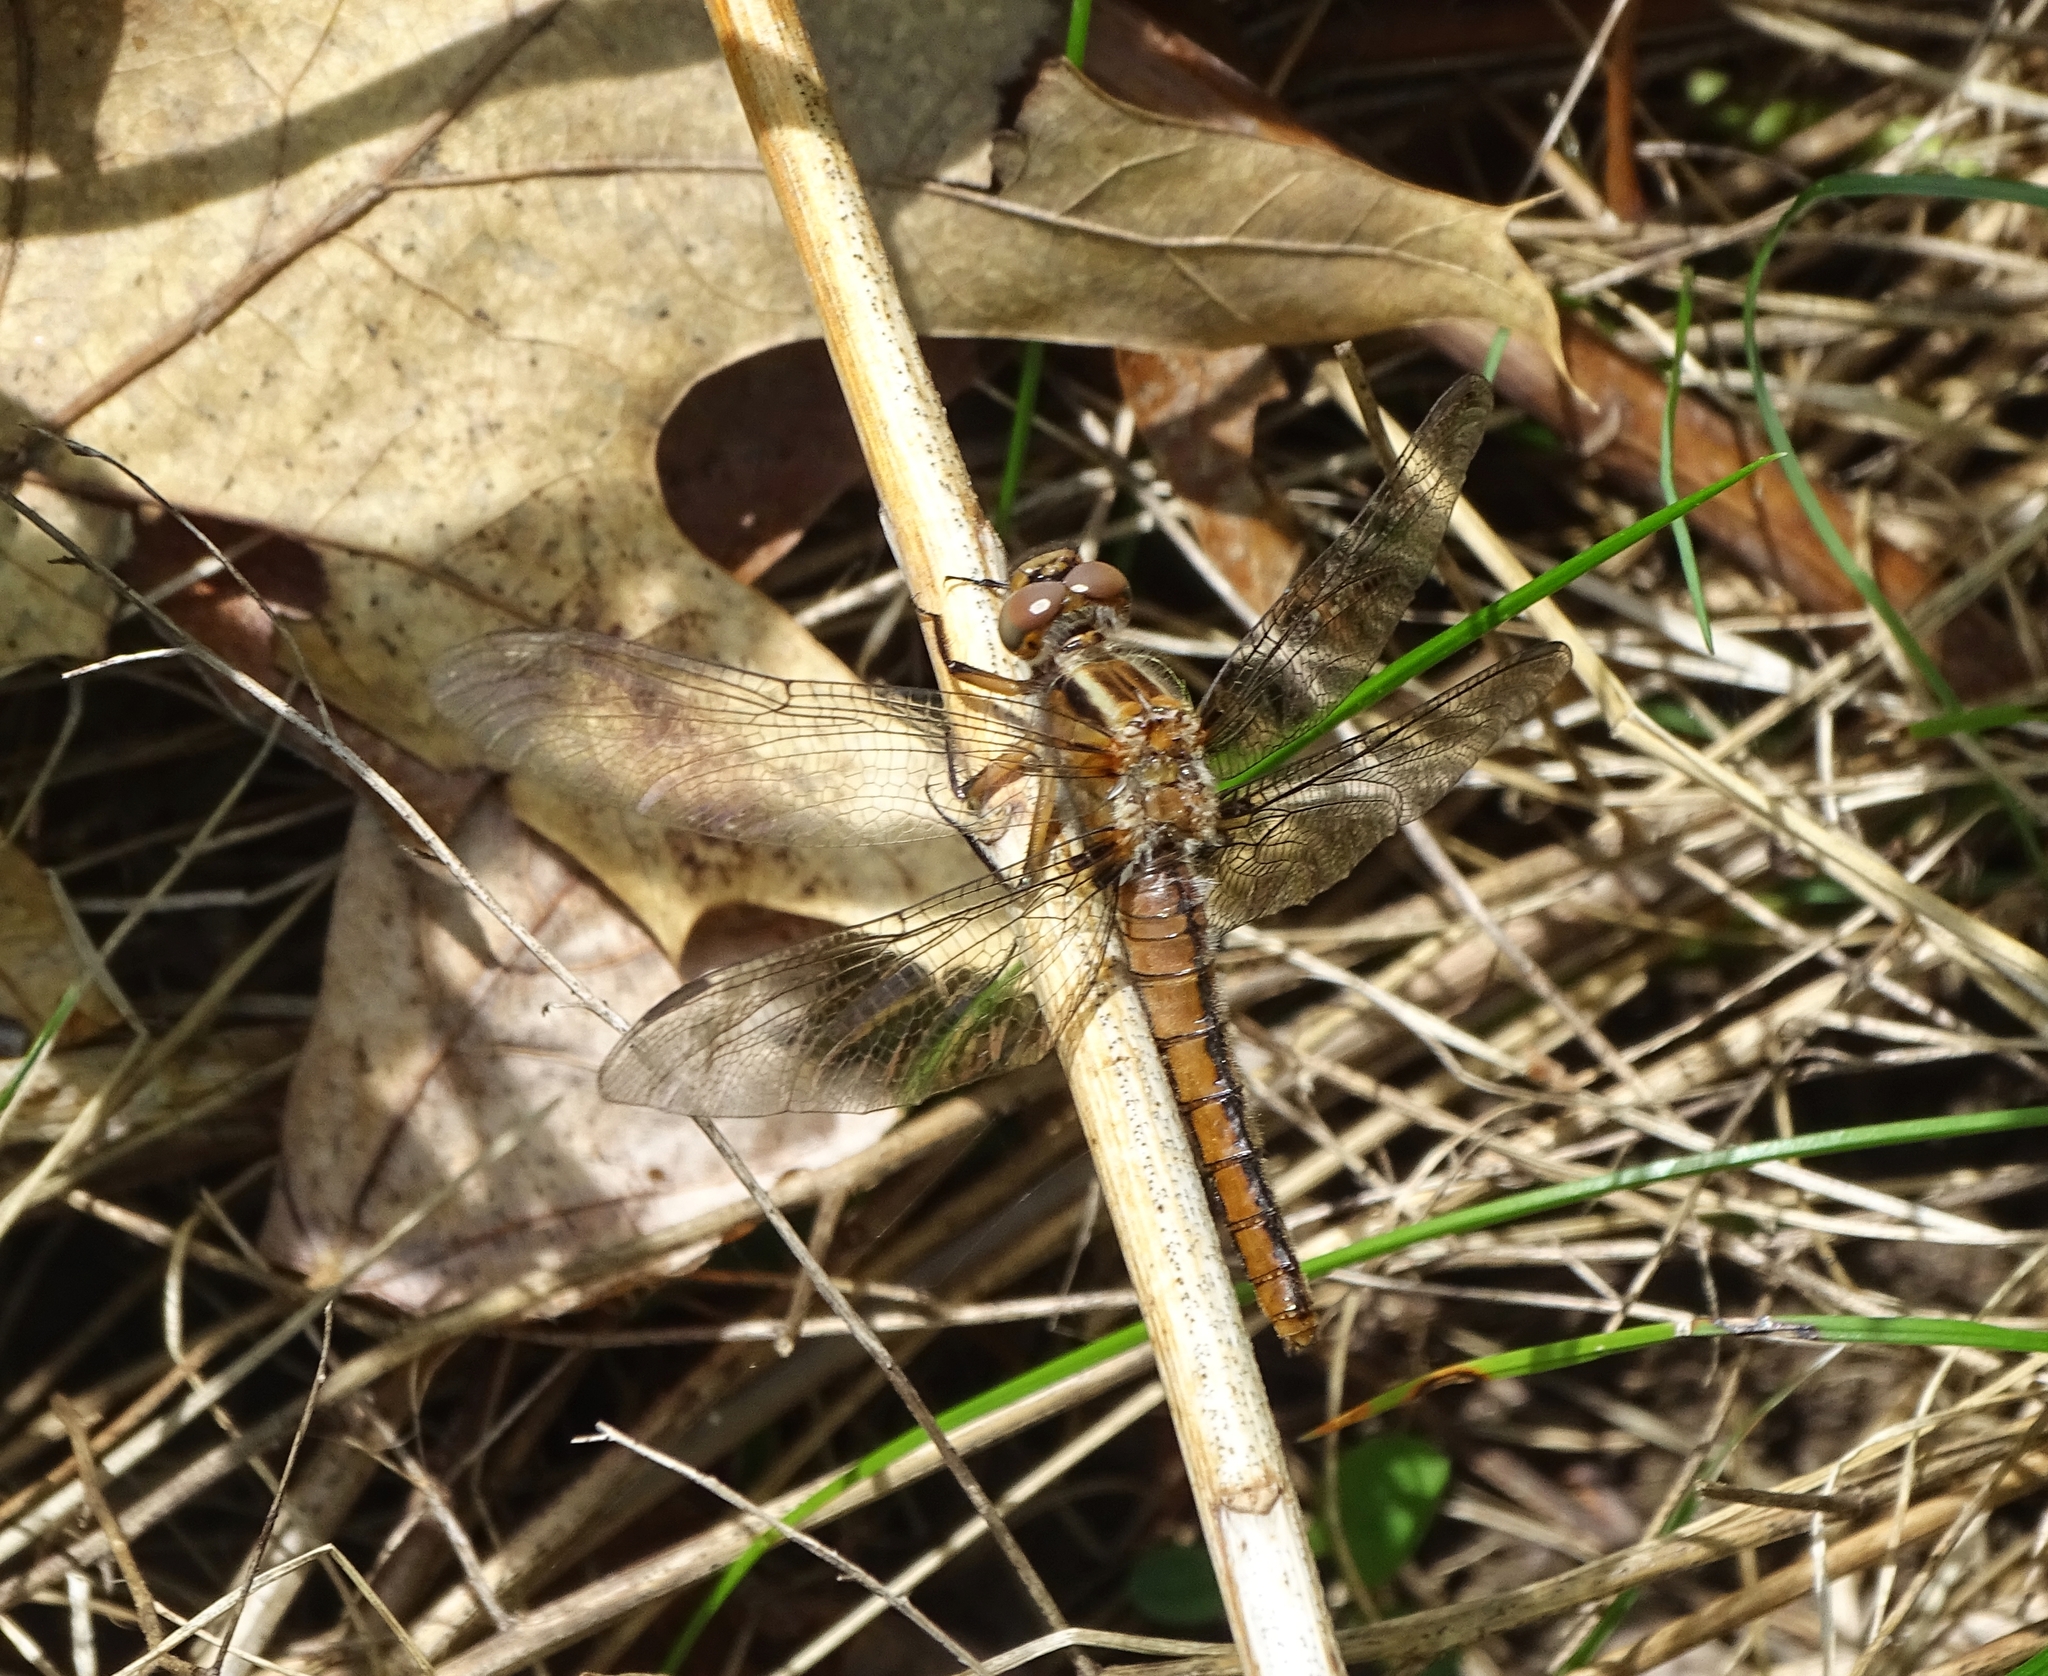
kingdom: Animalia
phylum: Arthropoda
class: Insecta
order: Odonata
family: Libellulidae
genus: Ladona
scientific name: Ladona julia
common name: Chalk-fronted corporal
